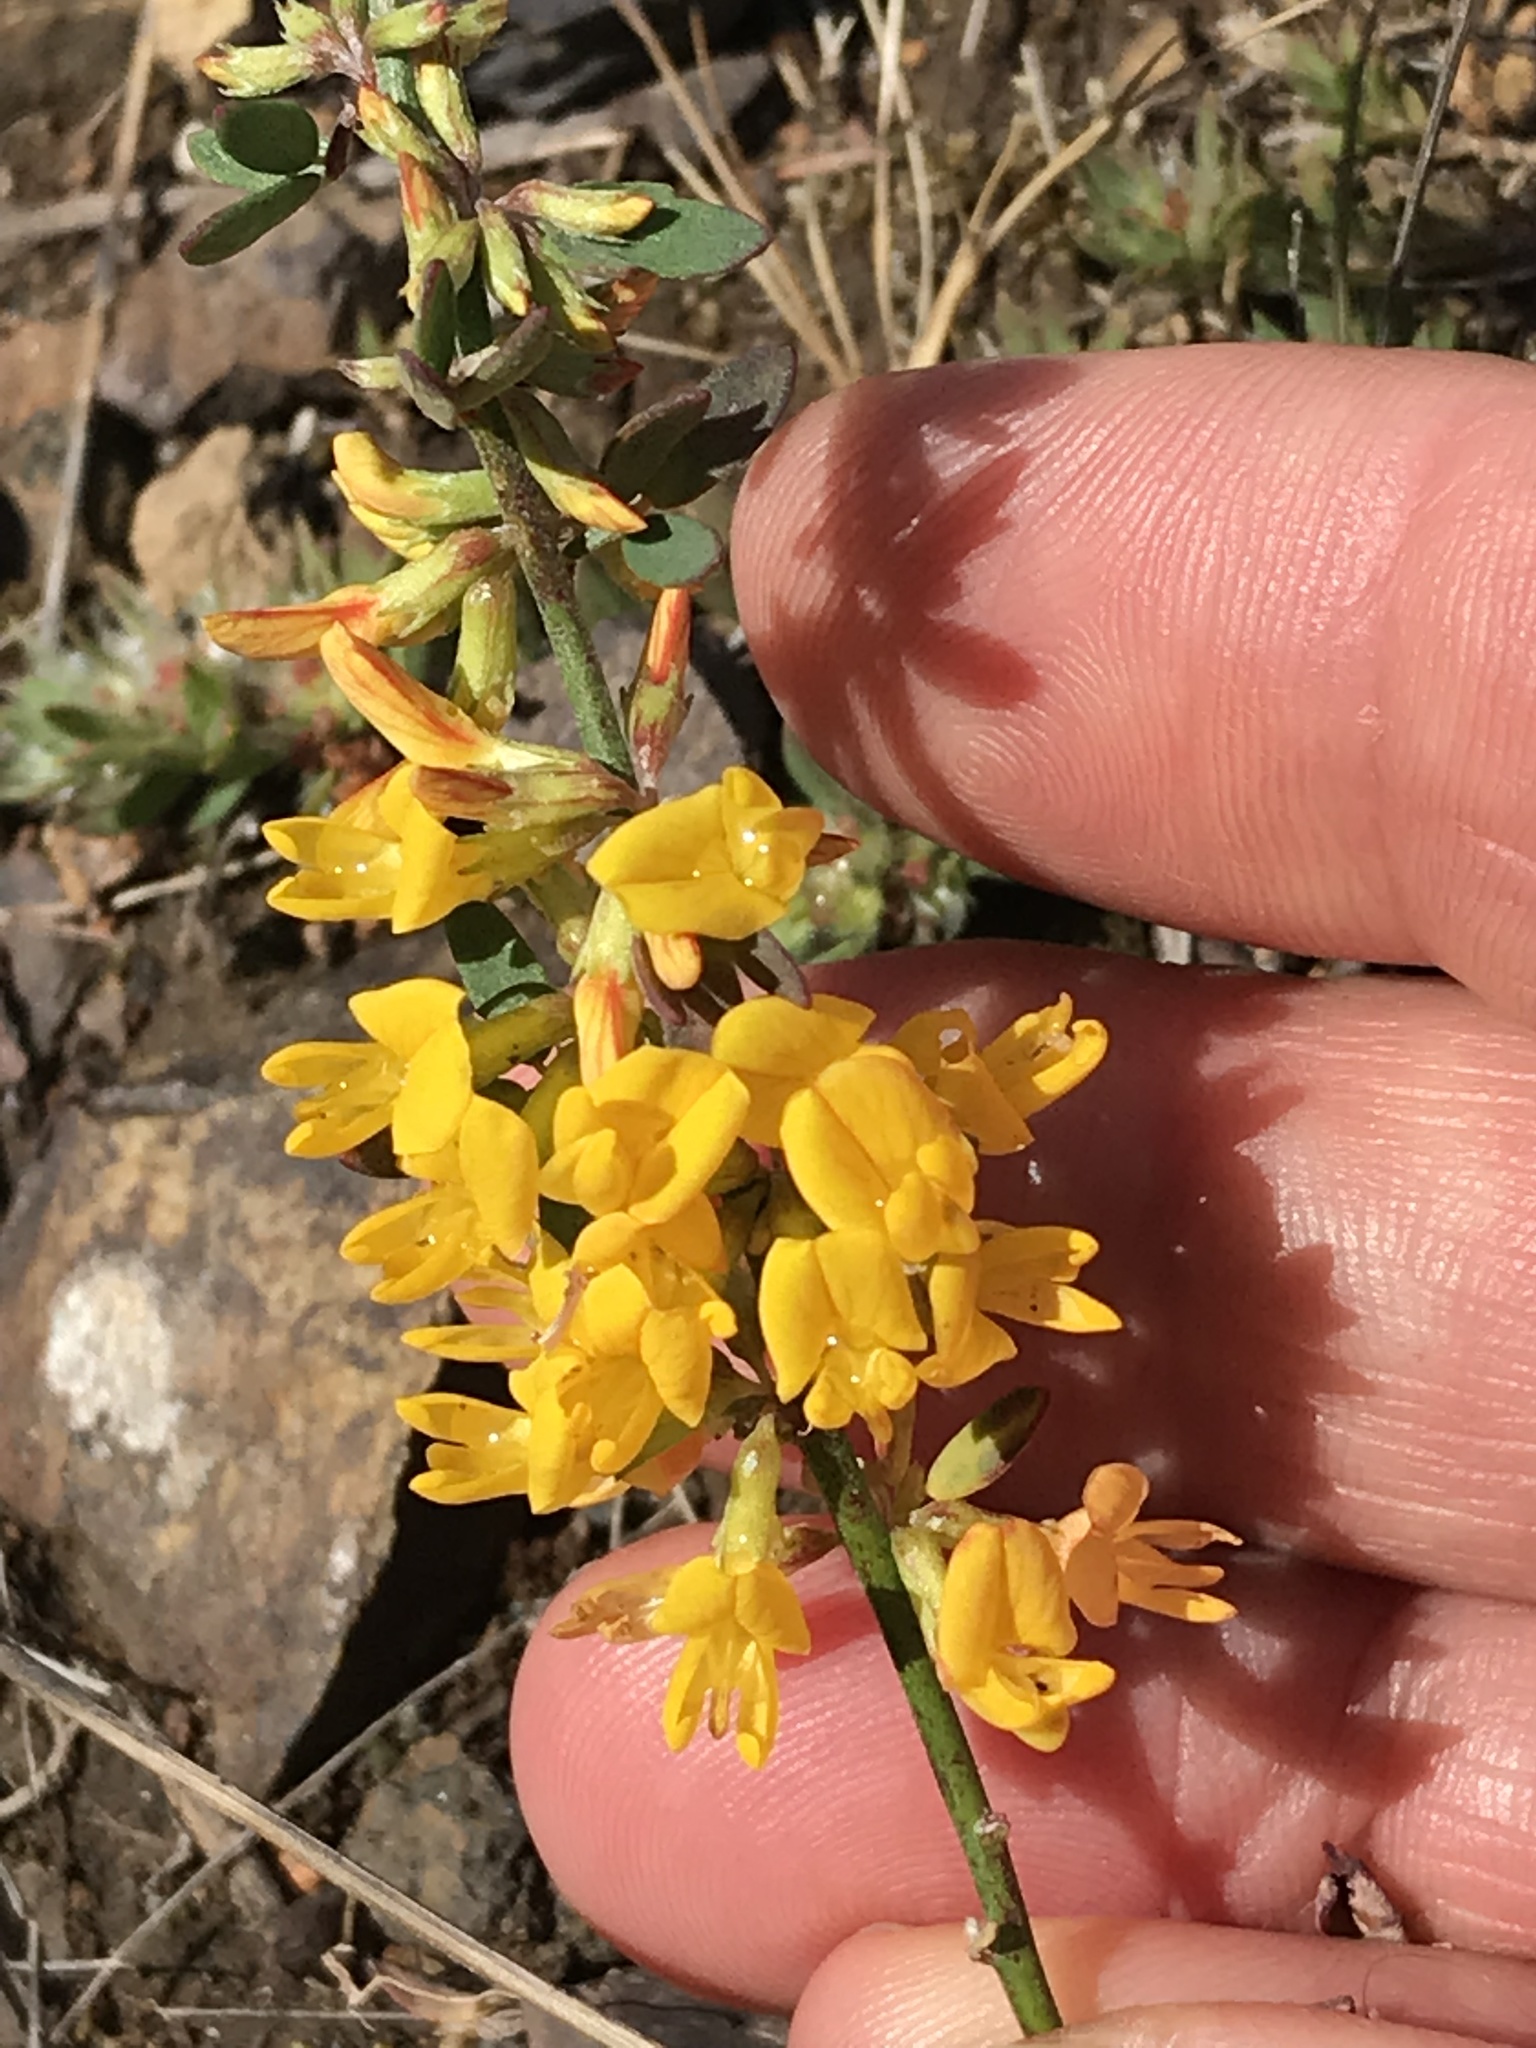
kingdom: Plantae
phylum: Tracheophyta
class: Magnoliopsida
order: Fabales
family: Fabaceae
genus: Acmispon
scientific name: Acmispon glaber
